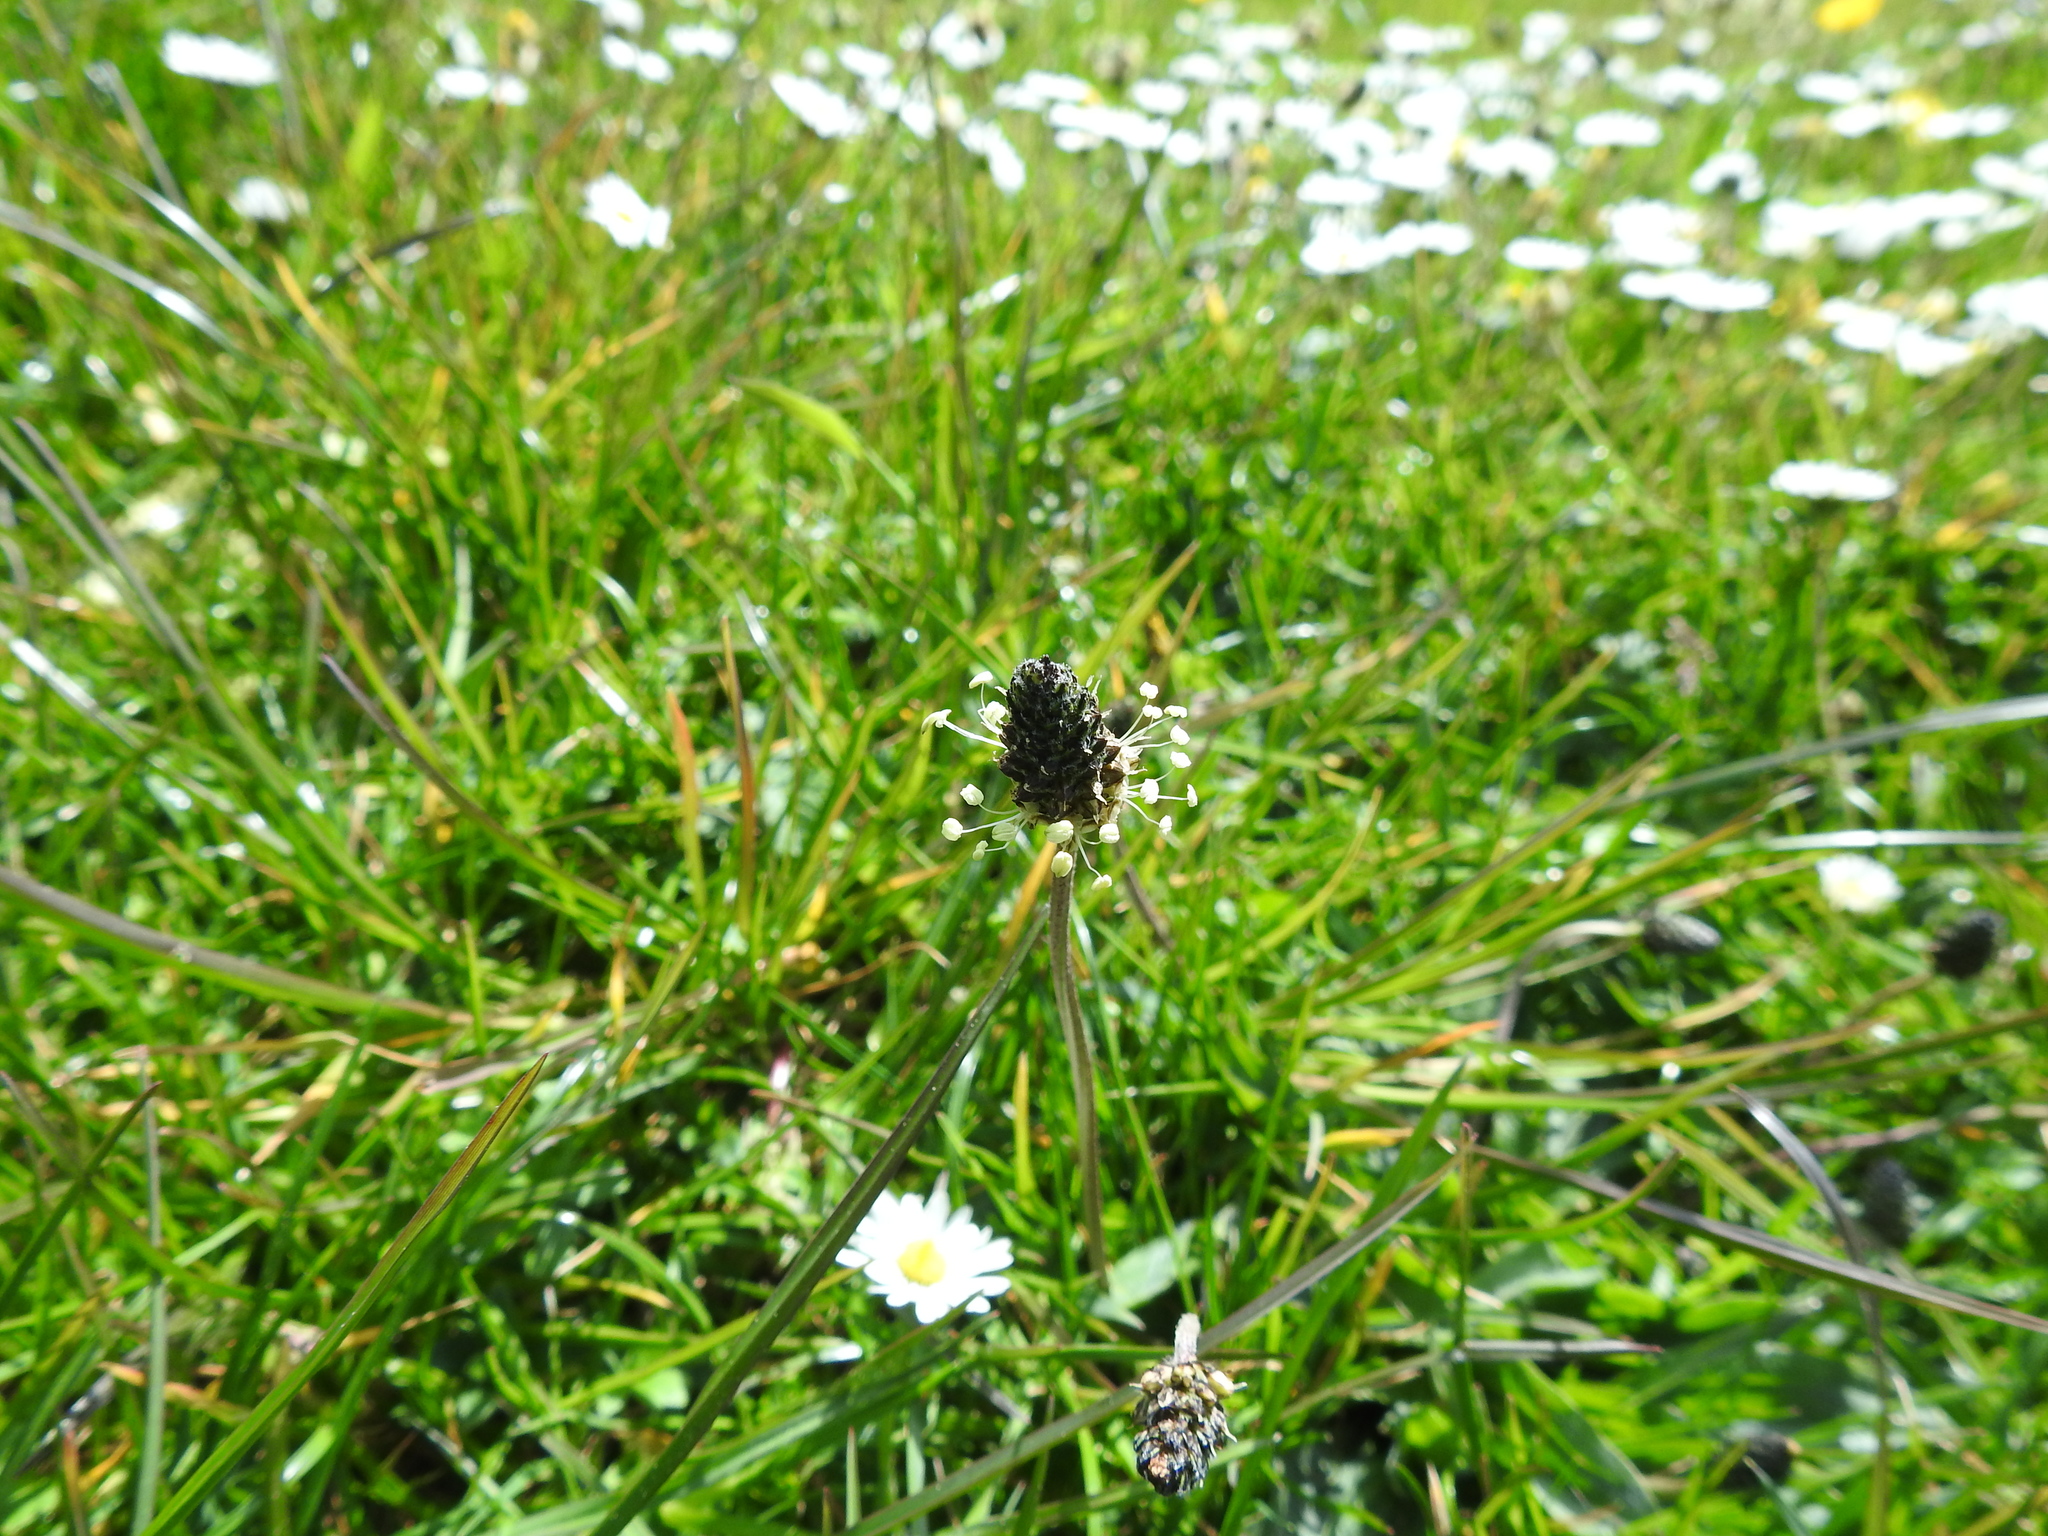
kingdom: Plantae
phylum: Tracheophyta
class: Magnoliopsida
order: Lamiales
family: Plantaginaceae
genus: Plantago
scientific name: Plantago lanceolata
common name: Ribwort plantain
